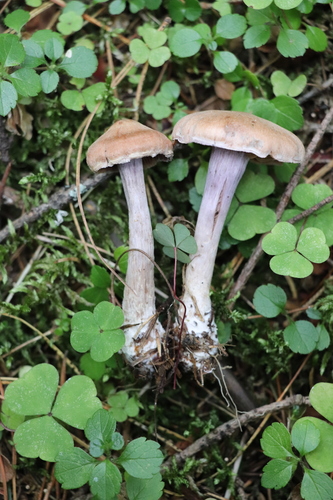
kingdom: Fungi
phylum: Basidiomycota
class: Agaricomycetes
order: Agaricales
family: Cortinariaceae
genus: Cortinarius
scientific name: Cortinarius laniger
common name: Woolly webcap
